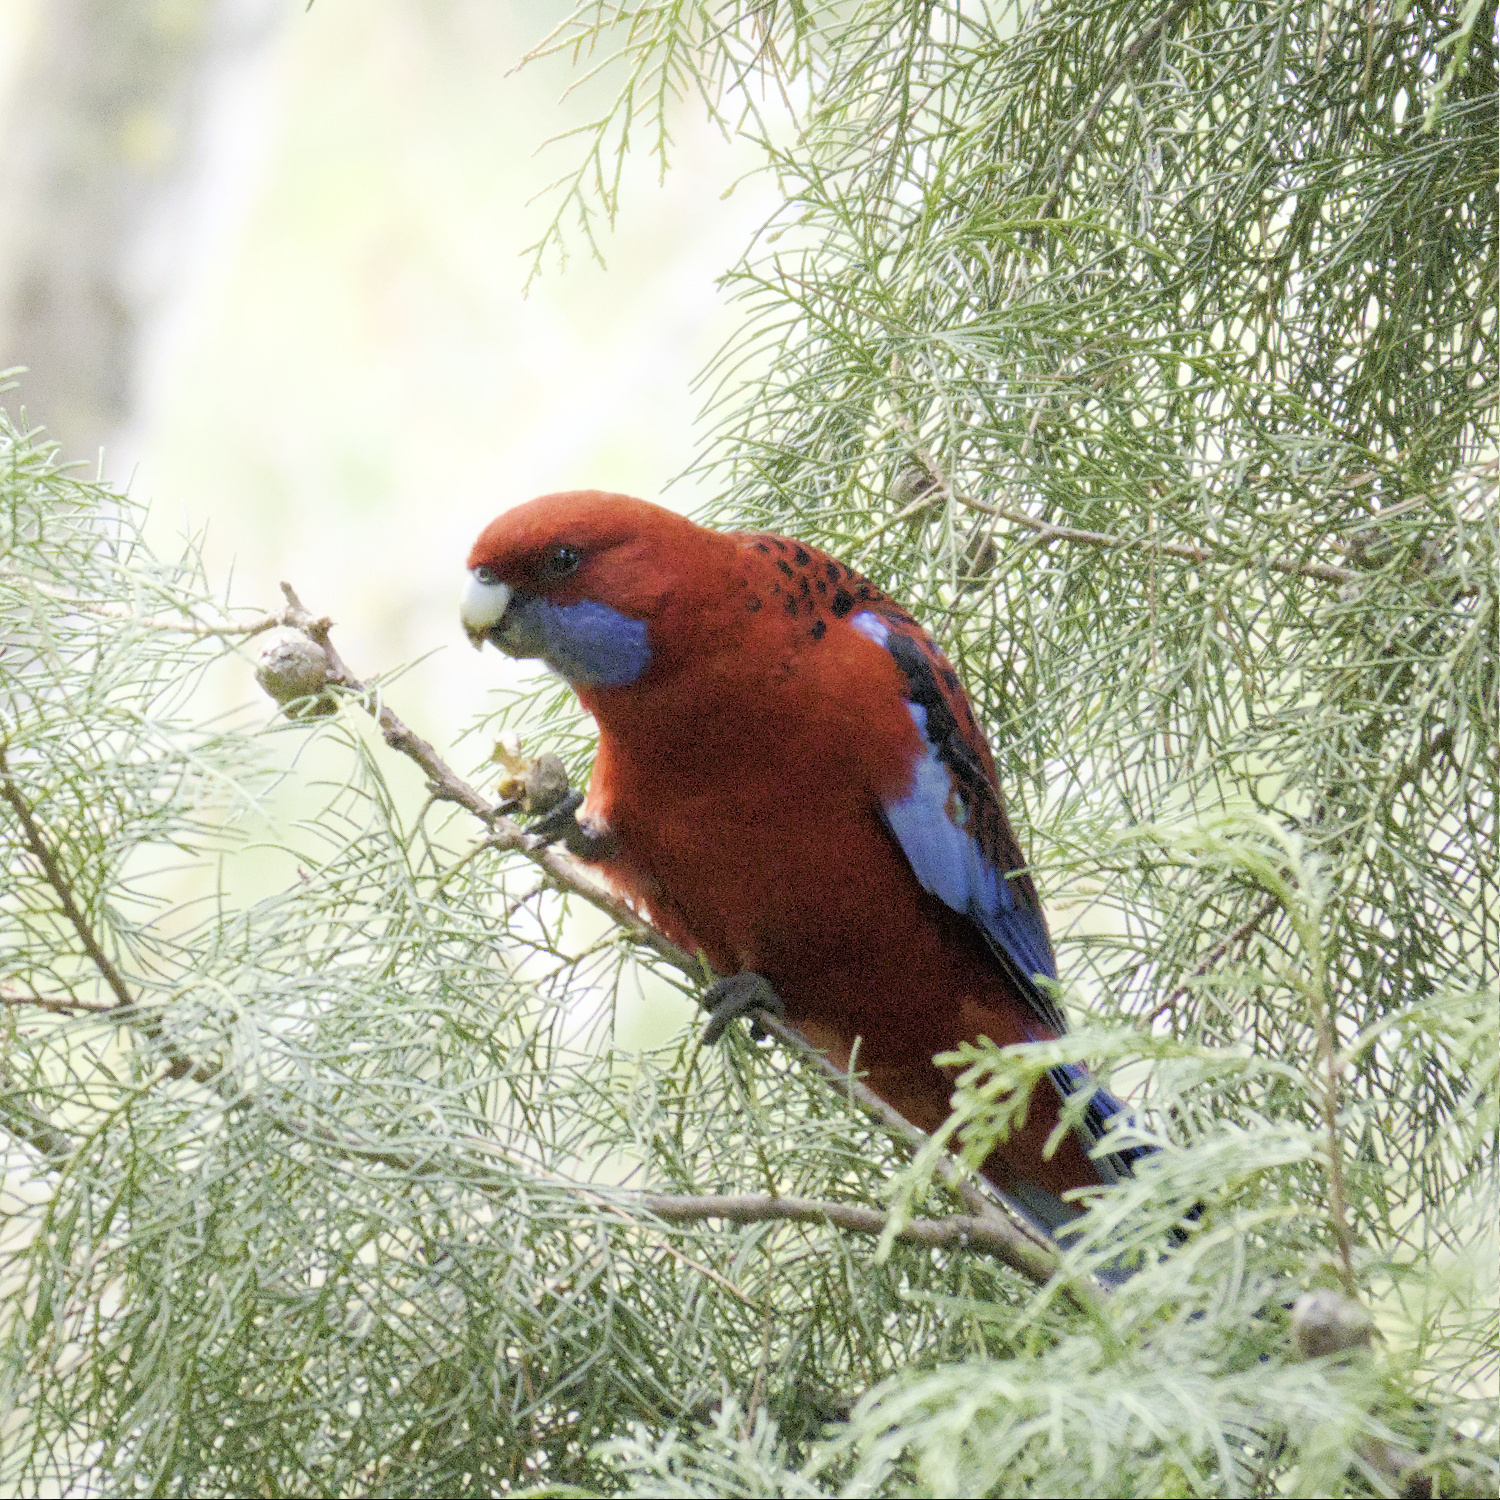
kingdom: Animalia
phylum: Chordata
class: Aves
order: Psittaciformes
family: Psittacidae
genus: Platycercus
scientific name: Platycercus elegans
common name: Crimson rosella
